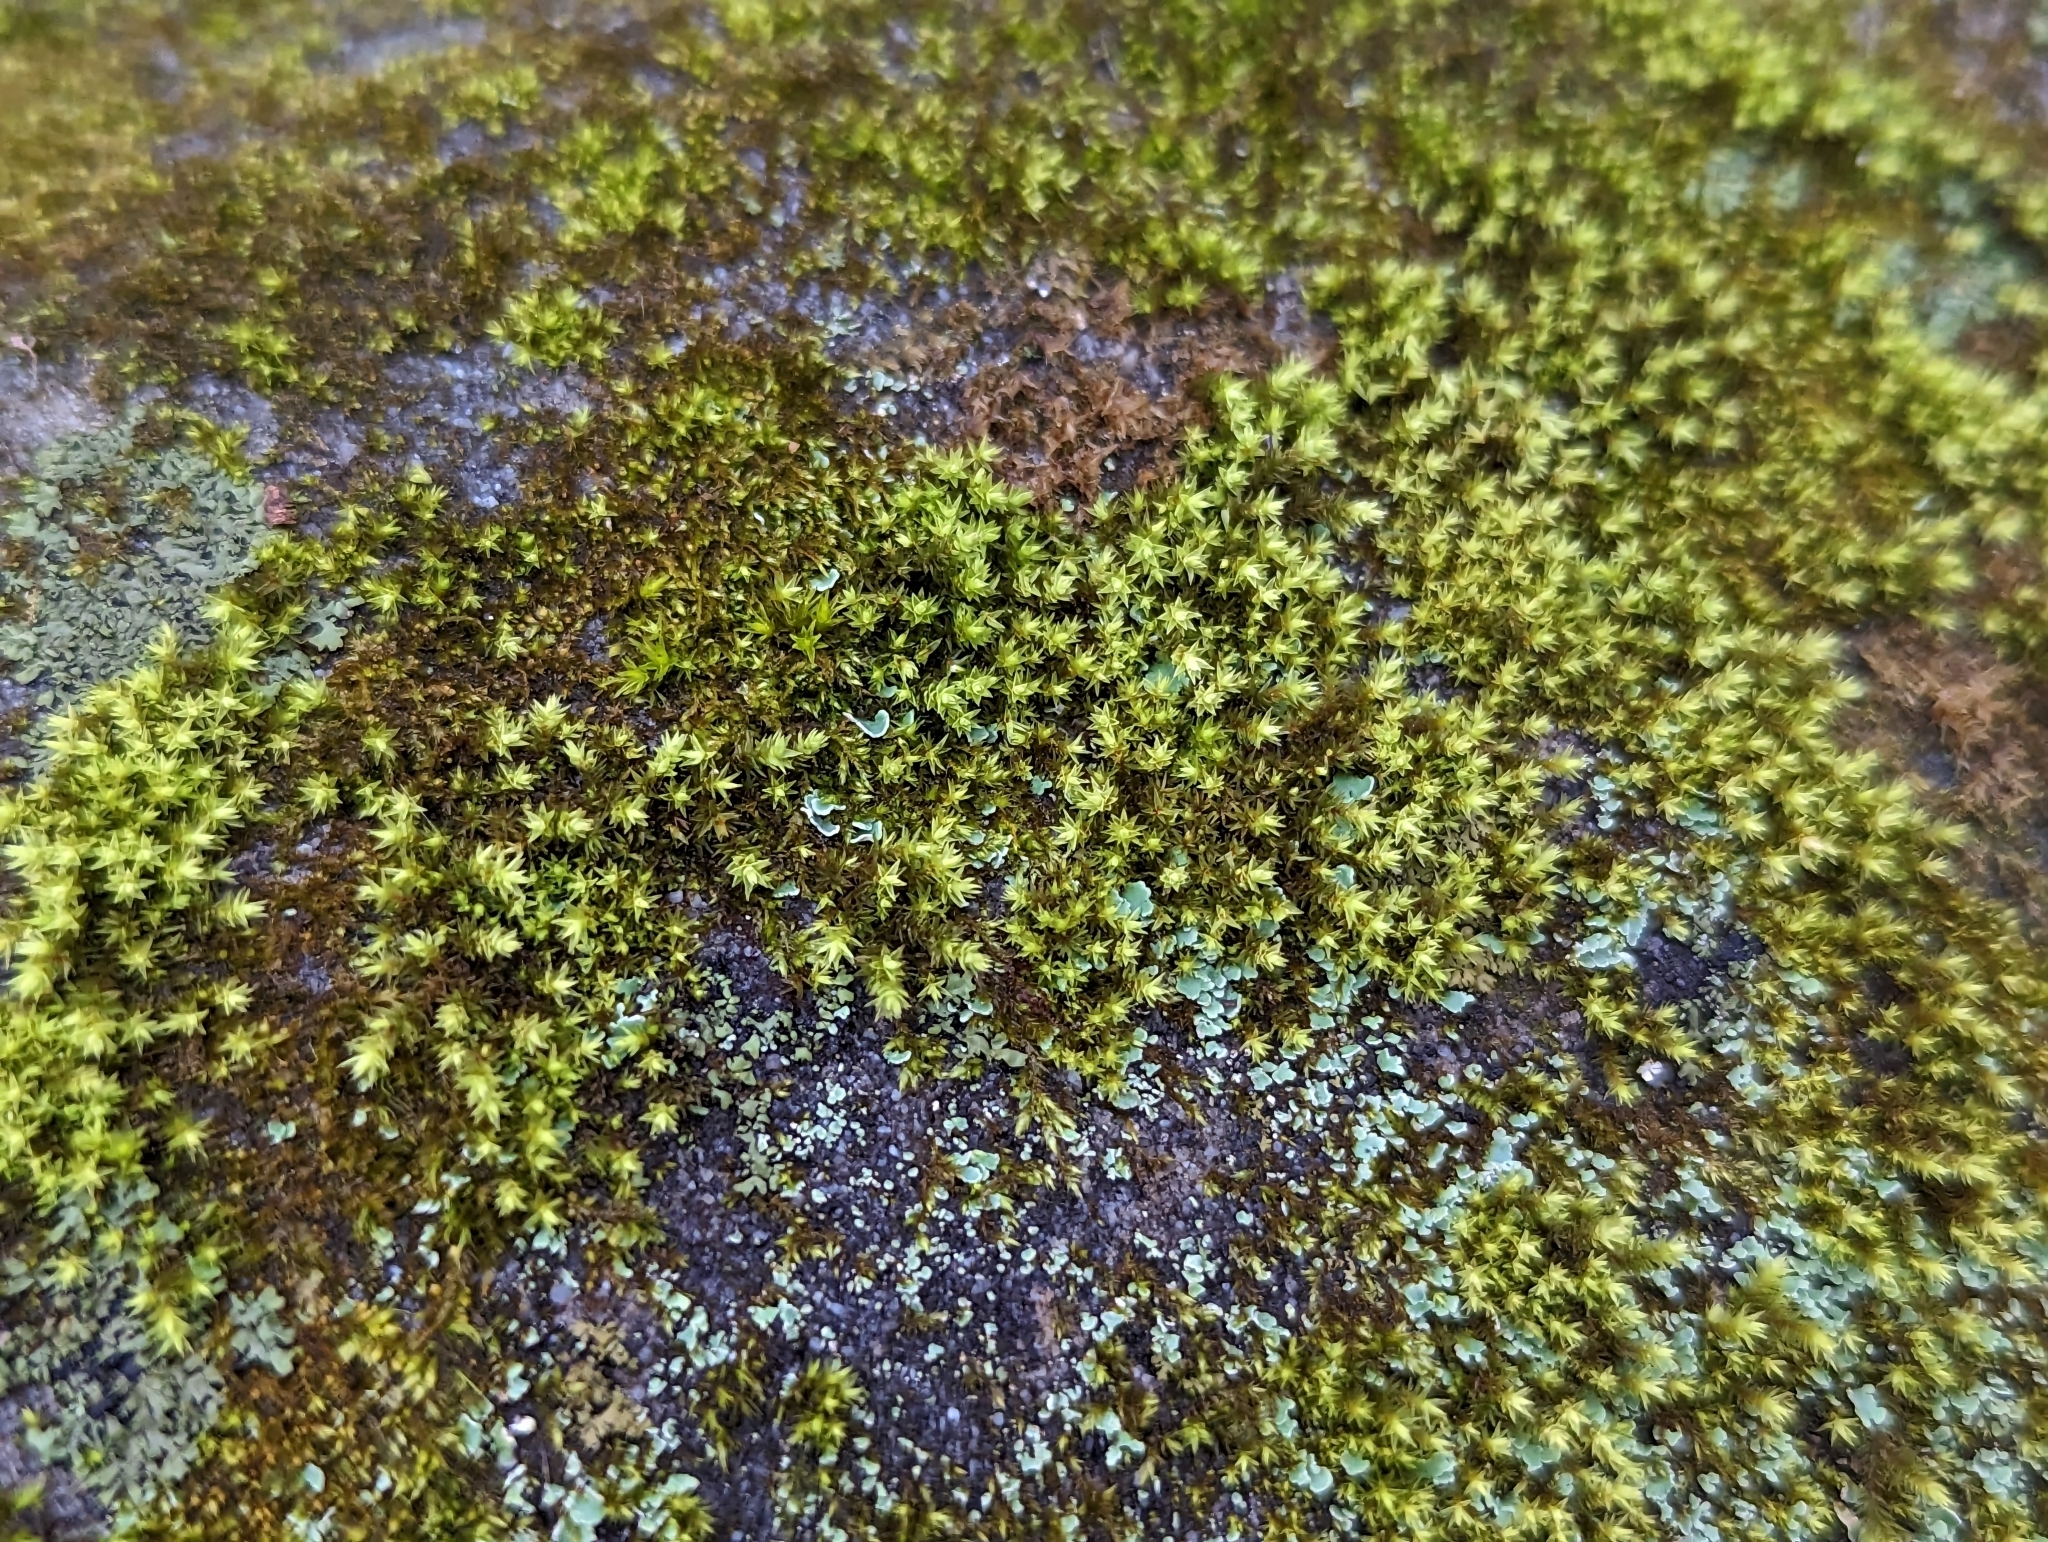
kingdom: Plantae
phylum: Bryophyta
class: Bryopsida
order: Hedwigiales
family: Hedwigiaceae
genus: Hedwigia
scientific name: Hedwigia ciliata
